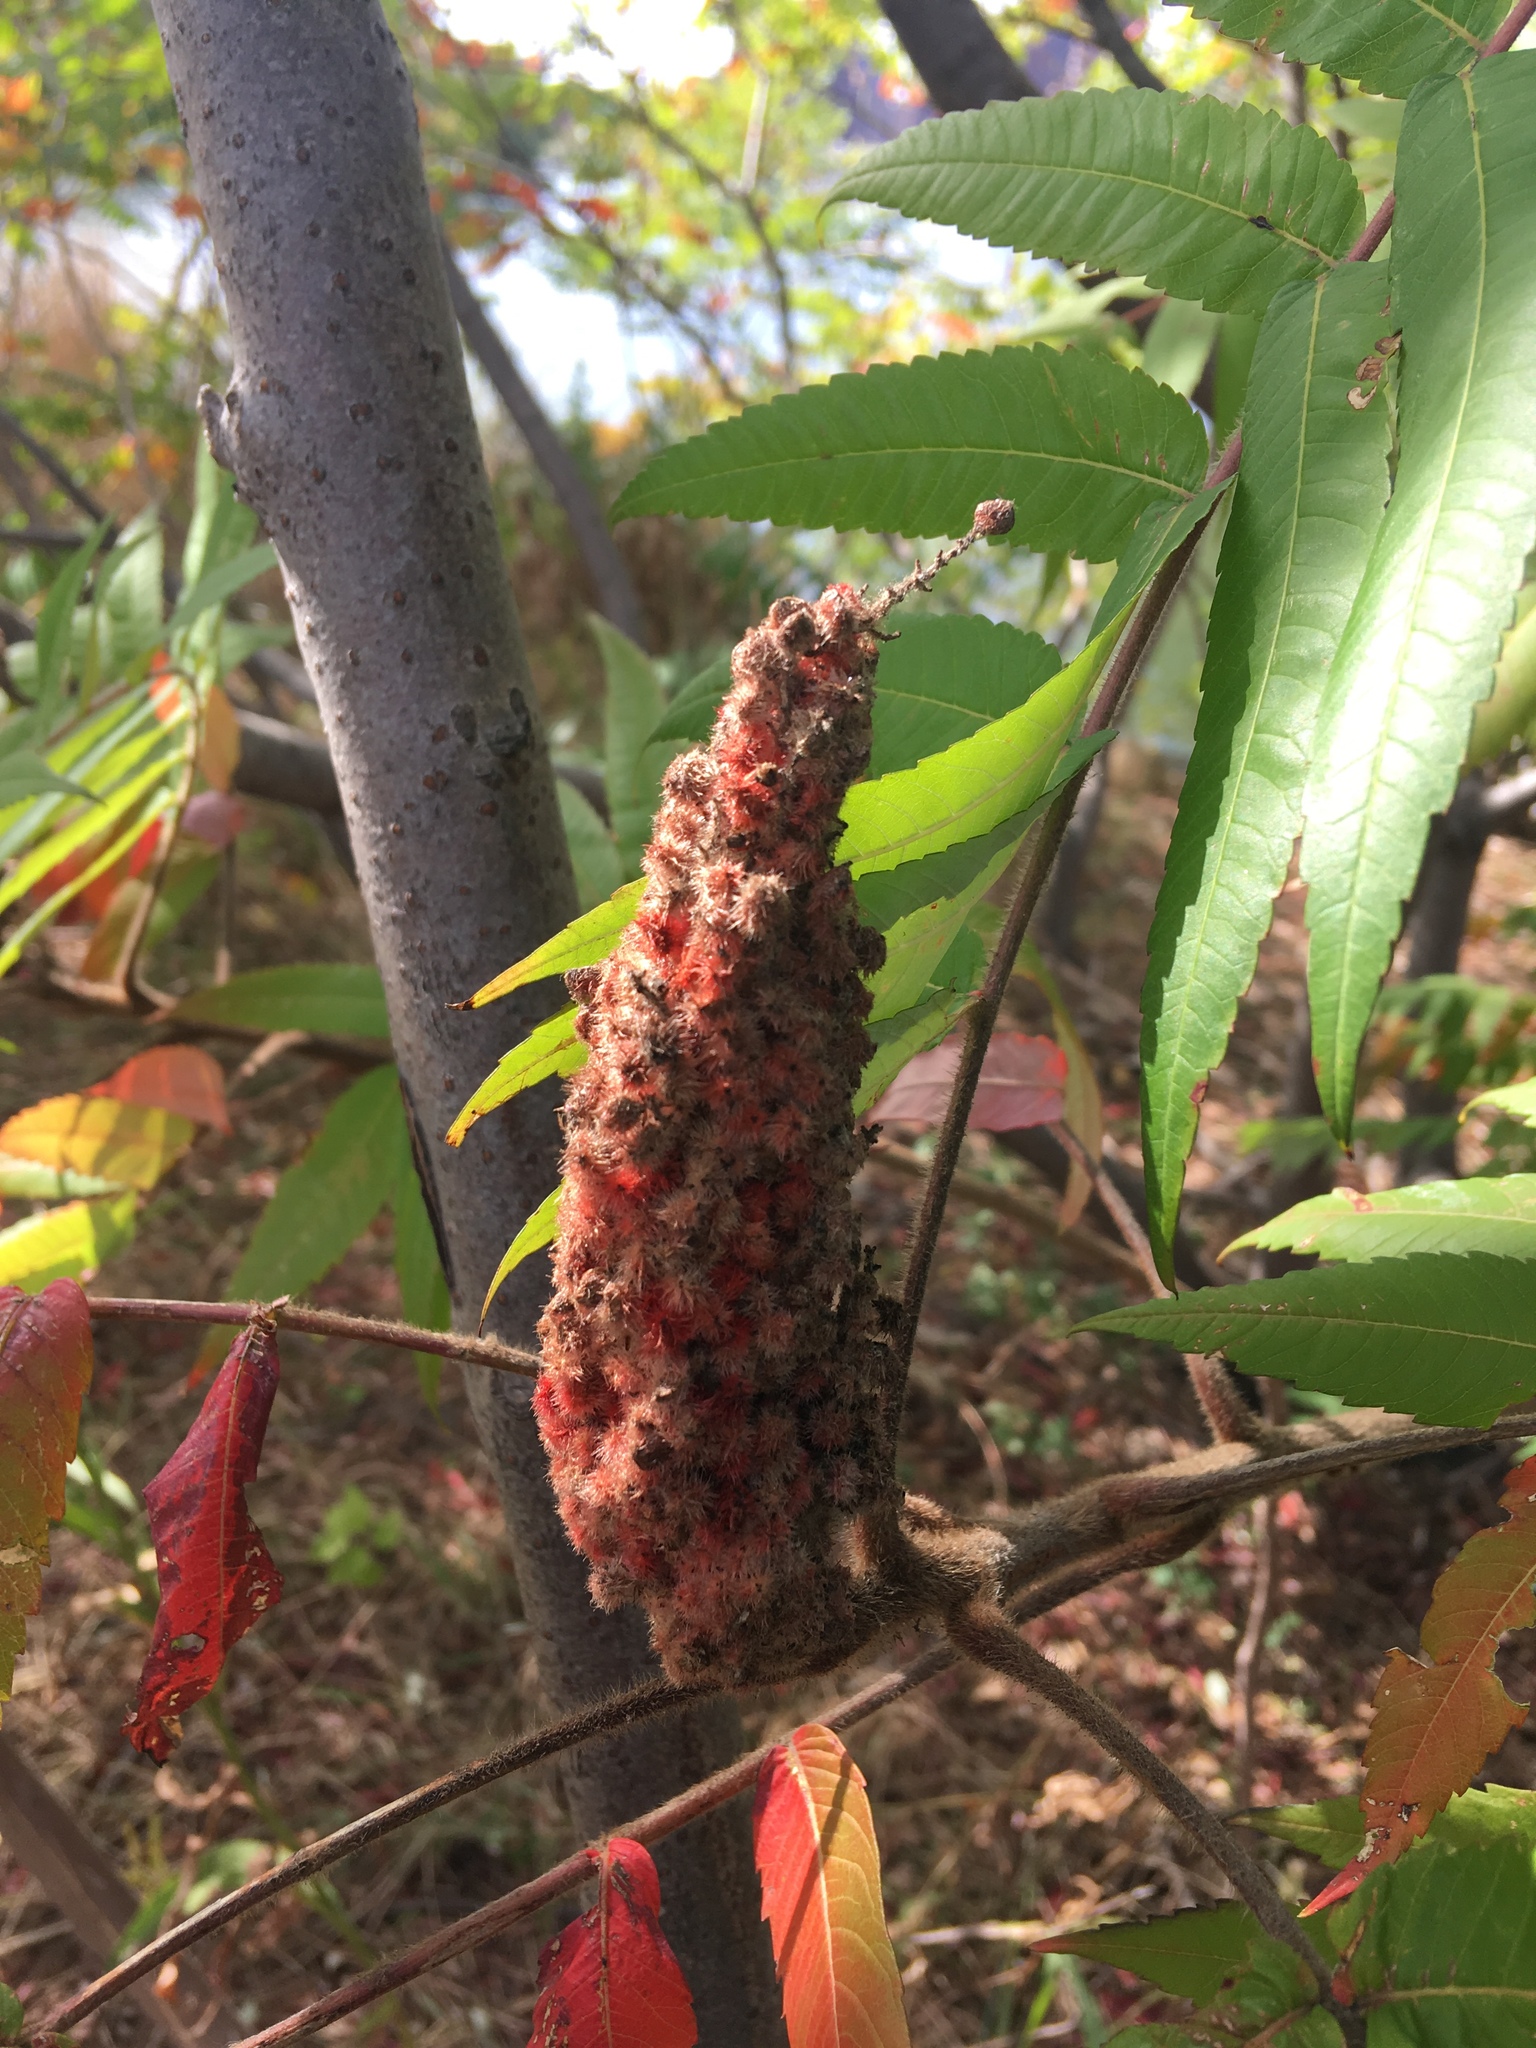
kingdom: Plantae
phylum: Tracheophyta
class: Magnoliopsida
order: Sapindales
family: Anacardiaceae
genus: Rhus
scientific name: Rhus typhina
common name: Staghorn sumac
